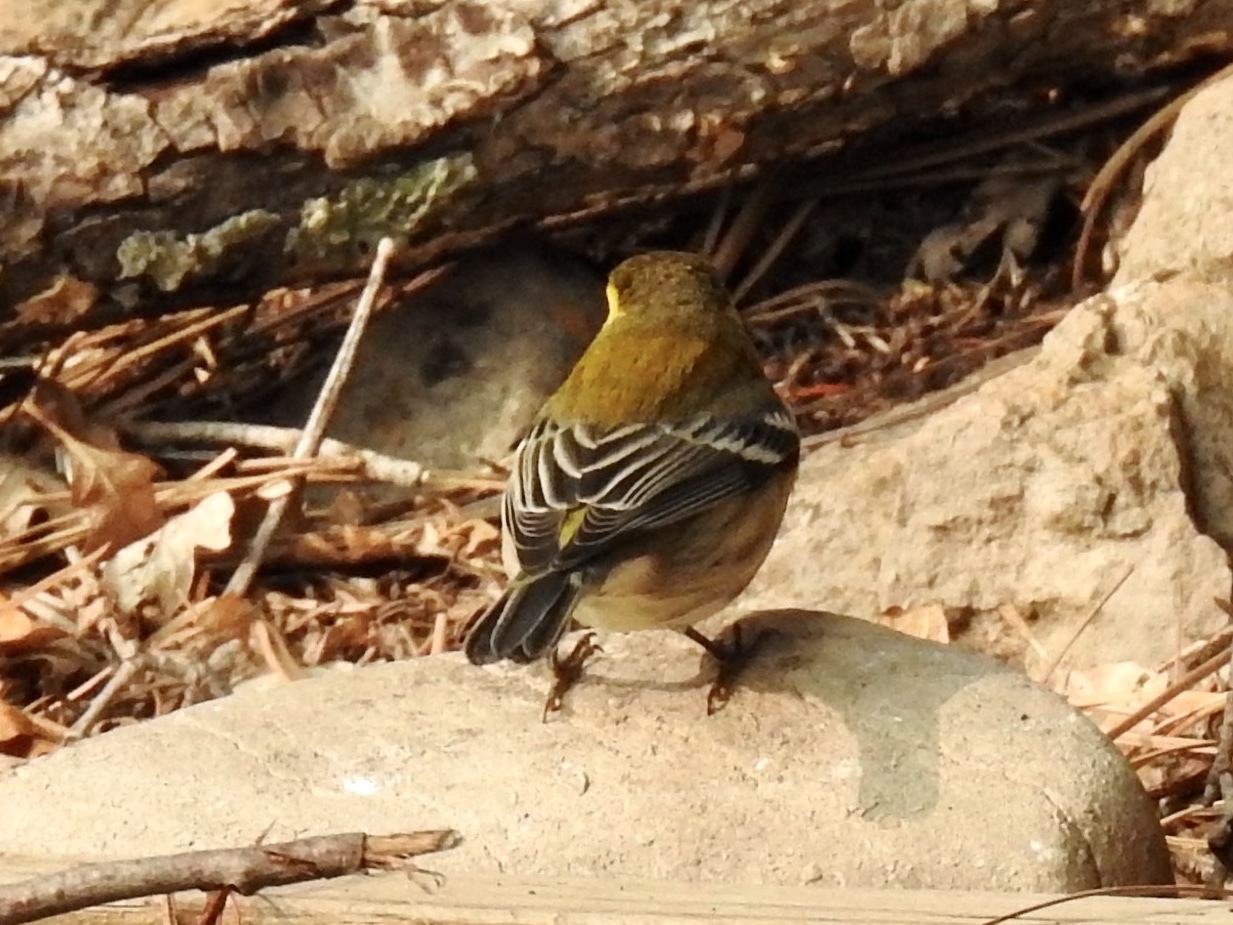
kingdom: Animalia
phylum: Chordata
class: Aves
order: Passeriformes
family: Parulidae
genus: Setophaga
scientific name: Setophaga townsendi
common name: Townsend's warbler
